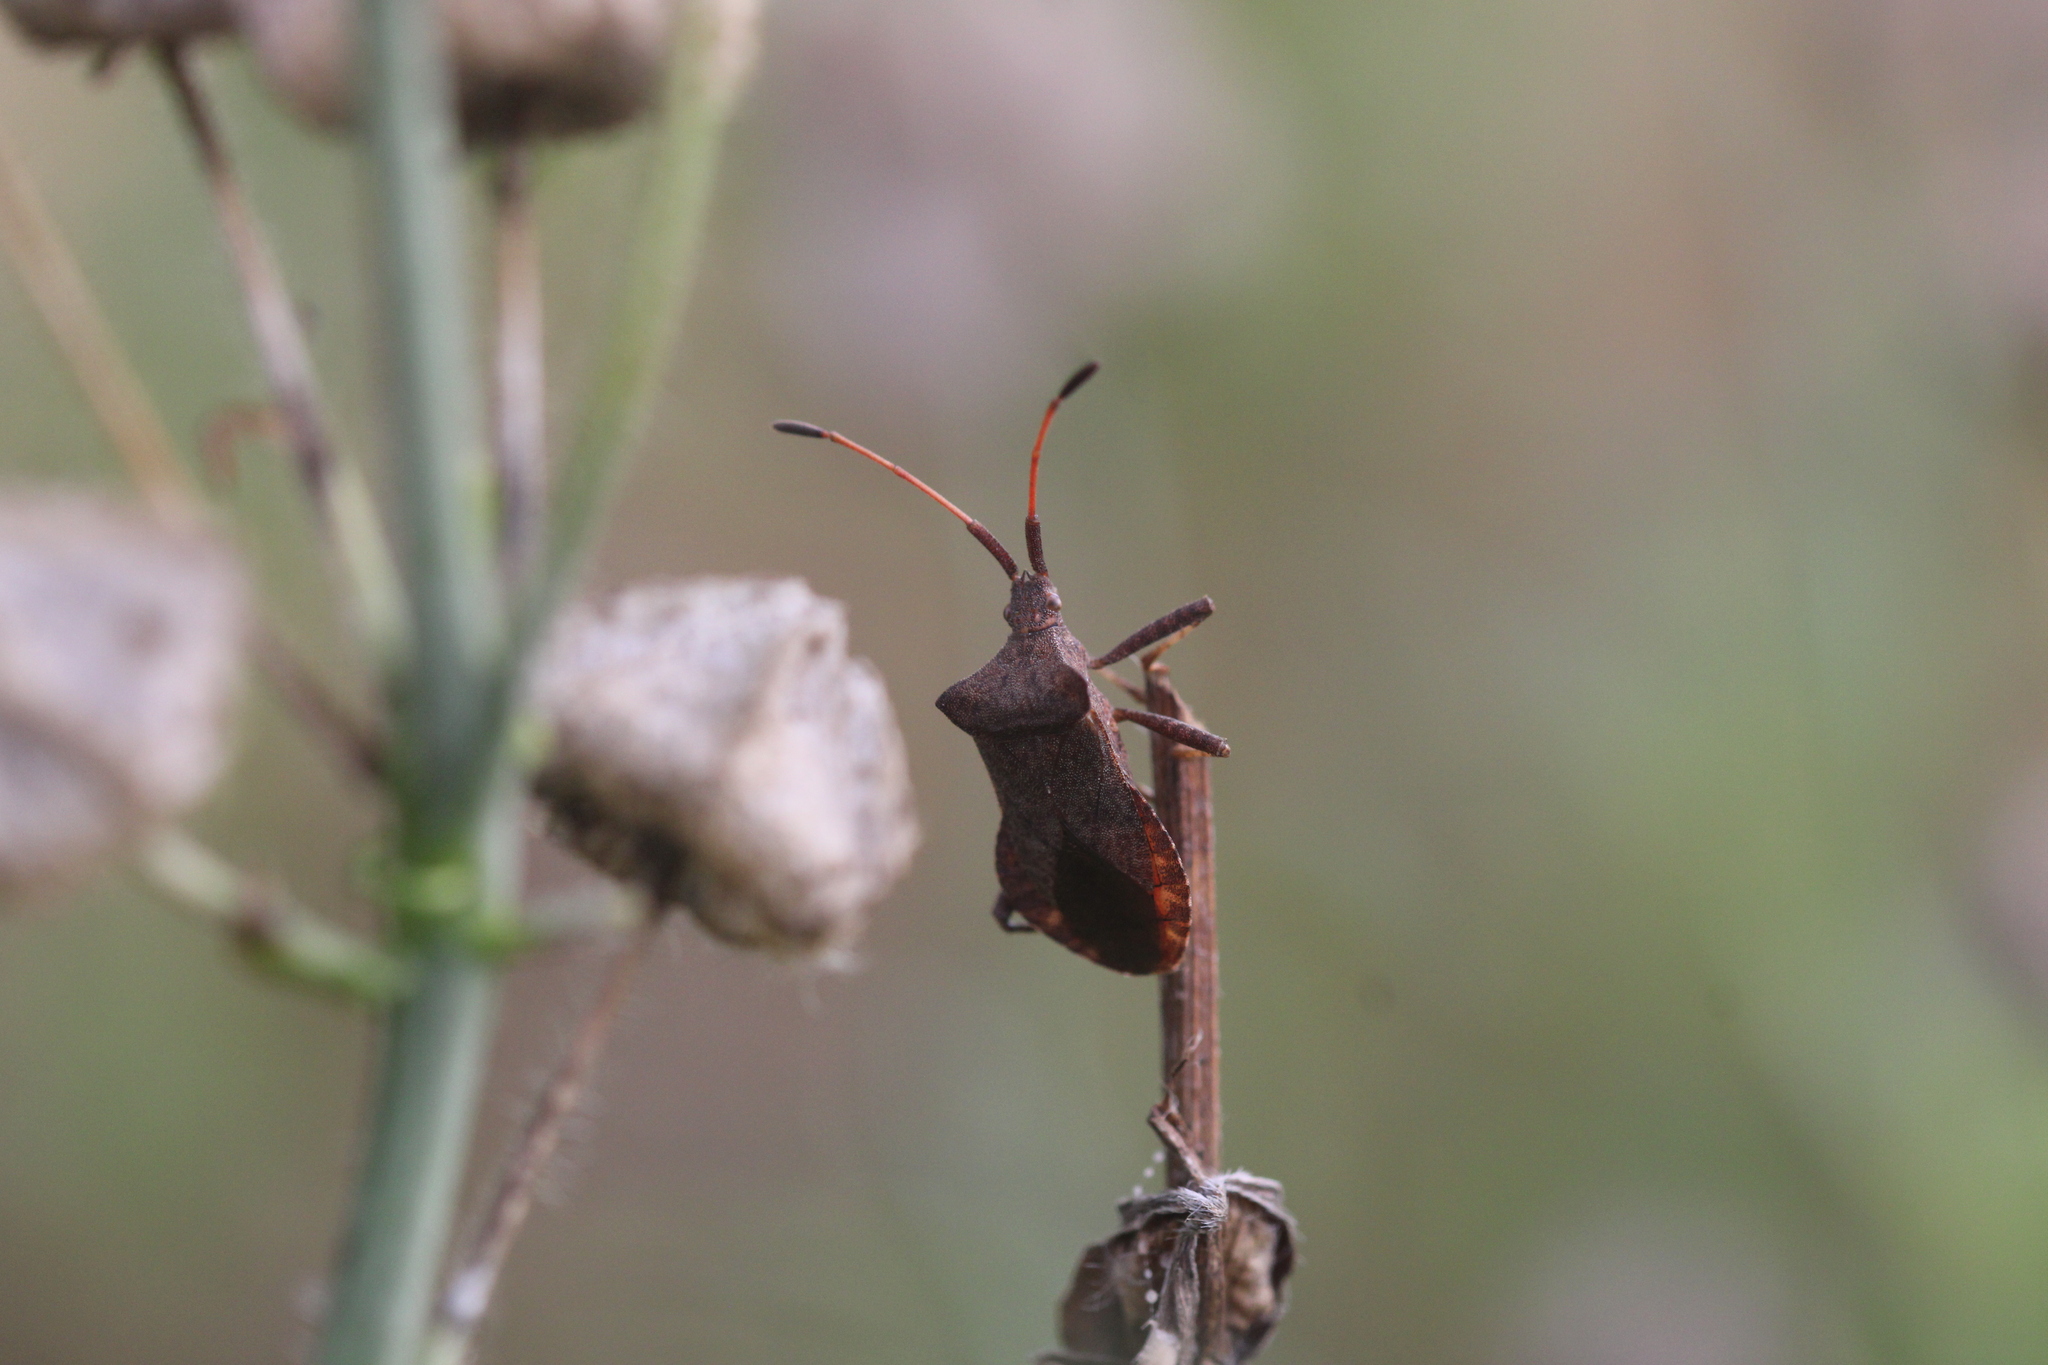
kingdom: Animalia
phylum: Arthropoda
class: Insecta
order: Hemiptera
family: Coreidae
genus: Coreus
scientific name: Coreus marginatus
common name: Dock bug
